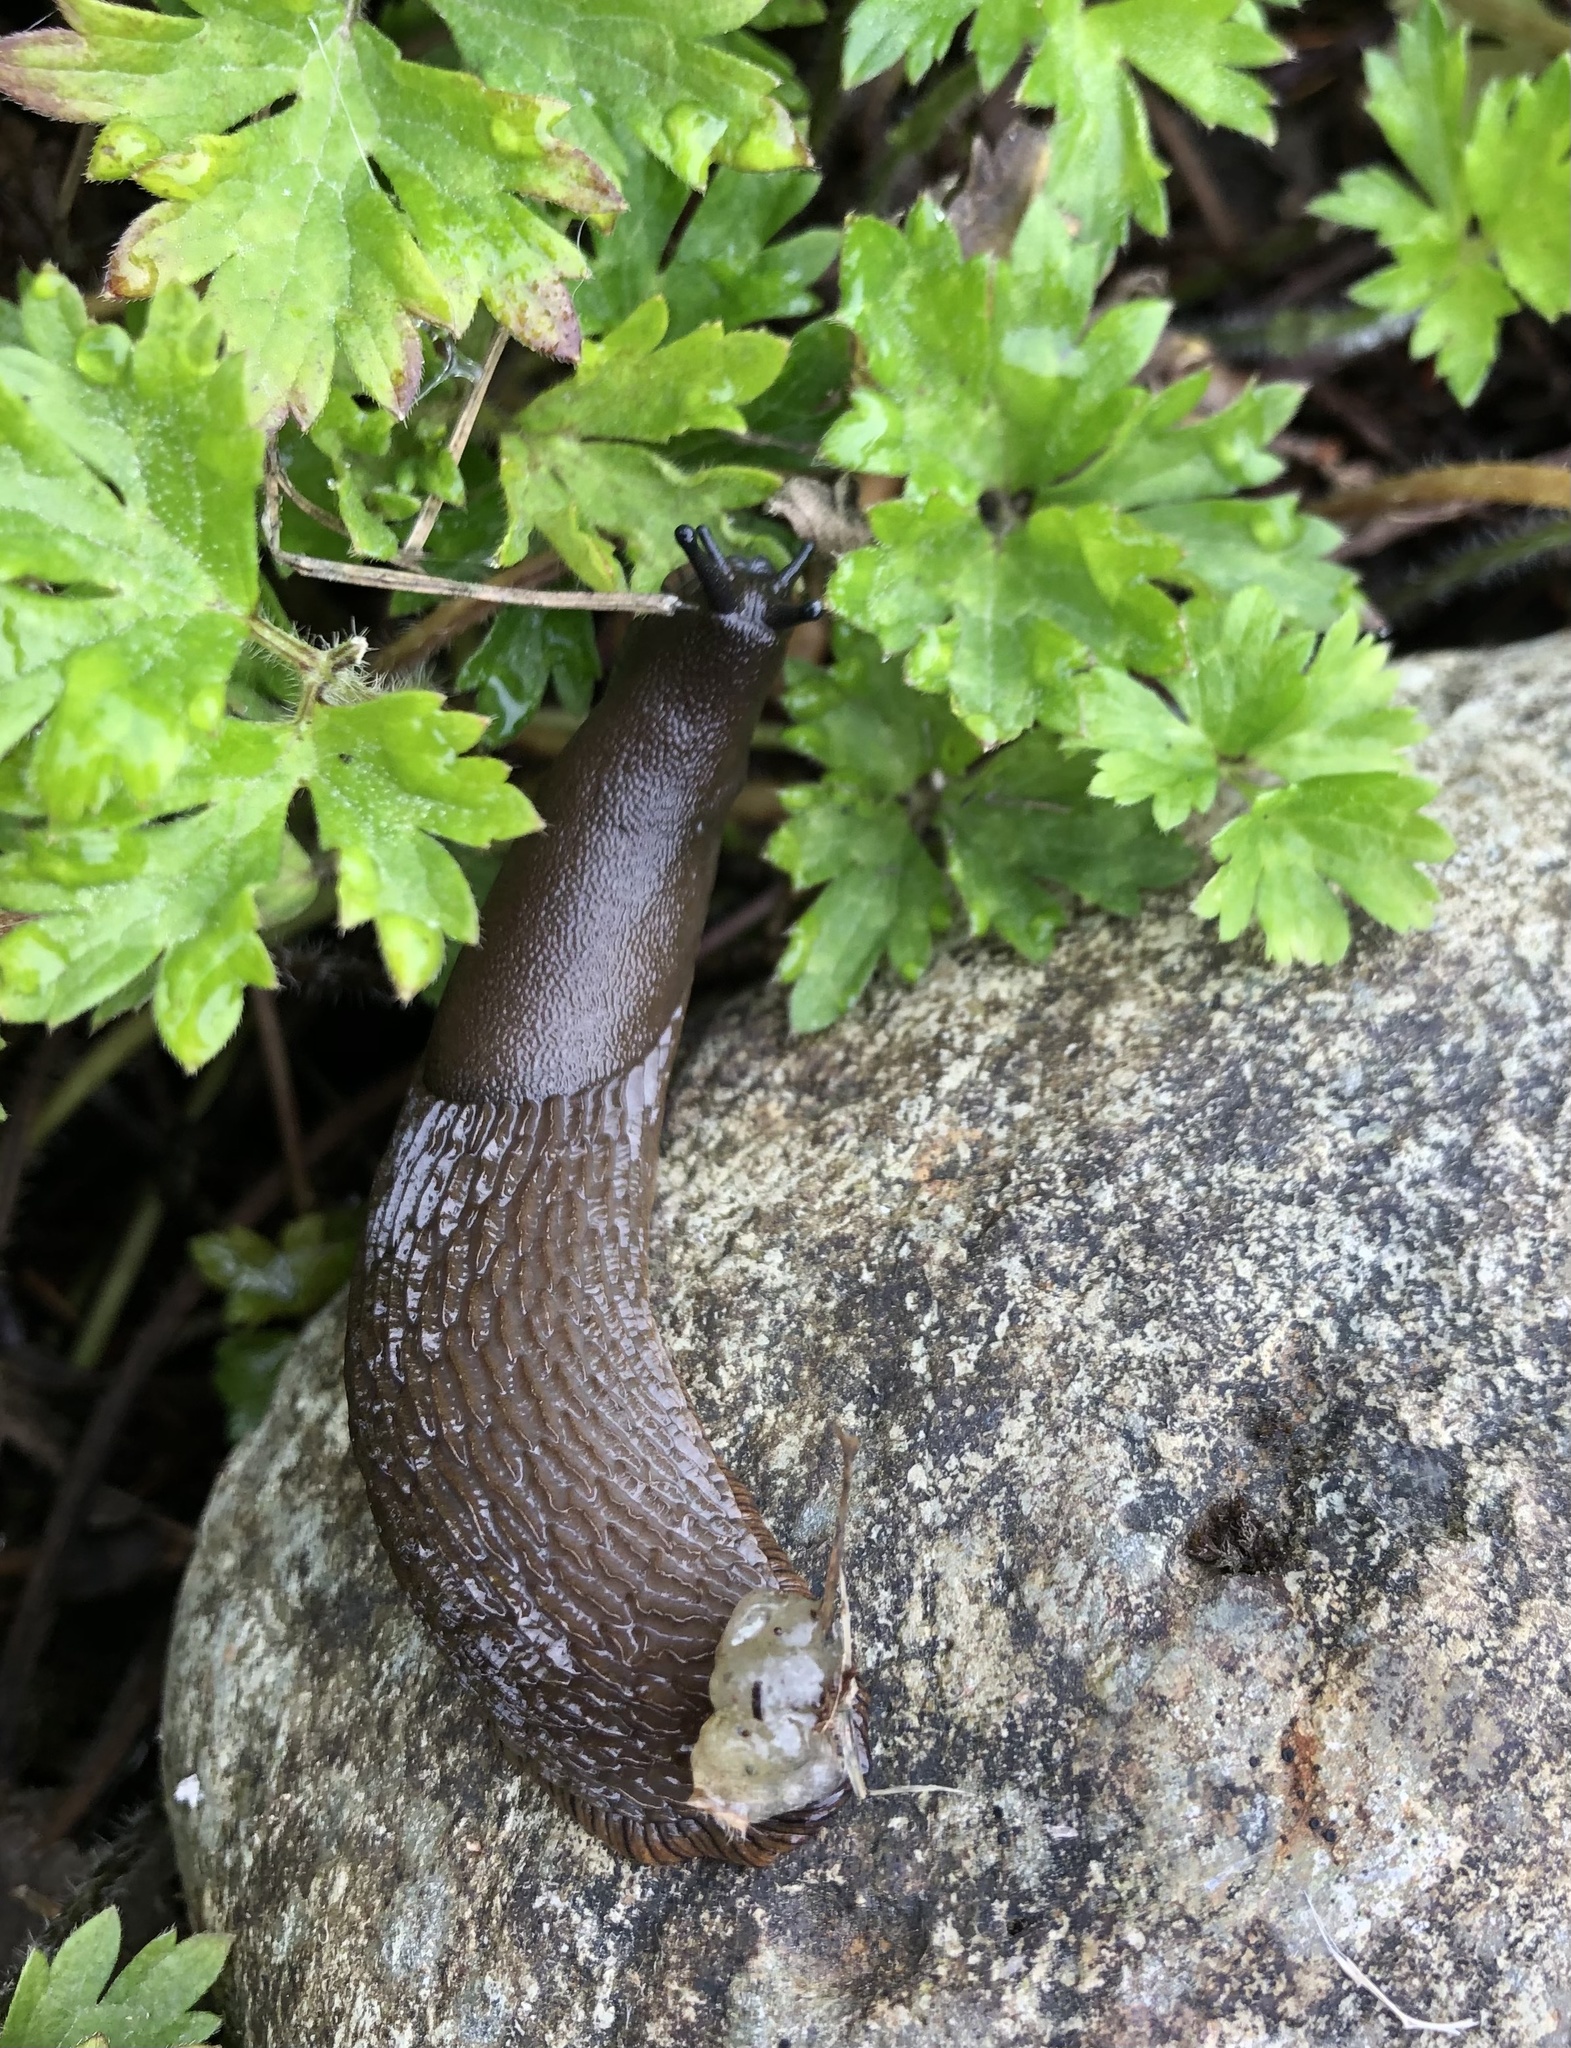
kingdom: Animalia
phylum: Mollusca
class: Gastropoda
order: Stylommatophora
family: Arionidae
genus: Arion
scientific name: Arion
